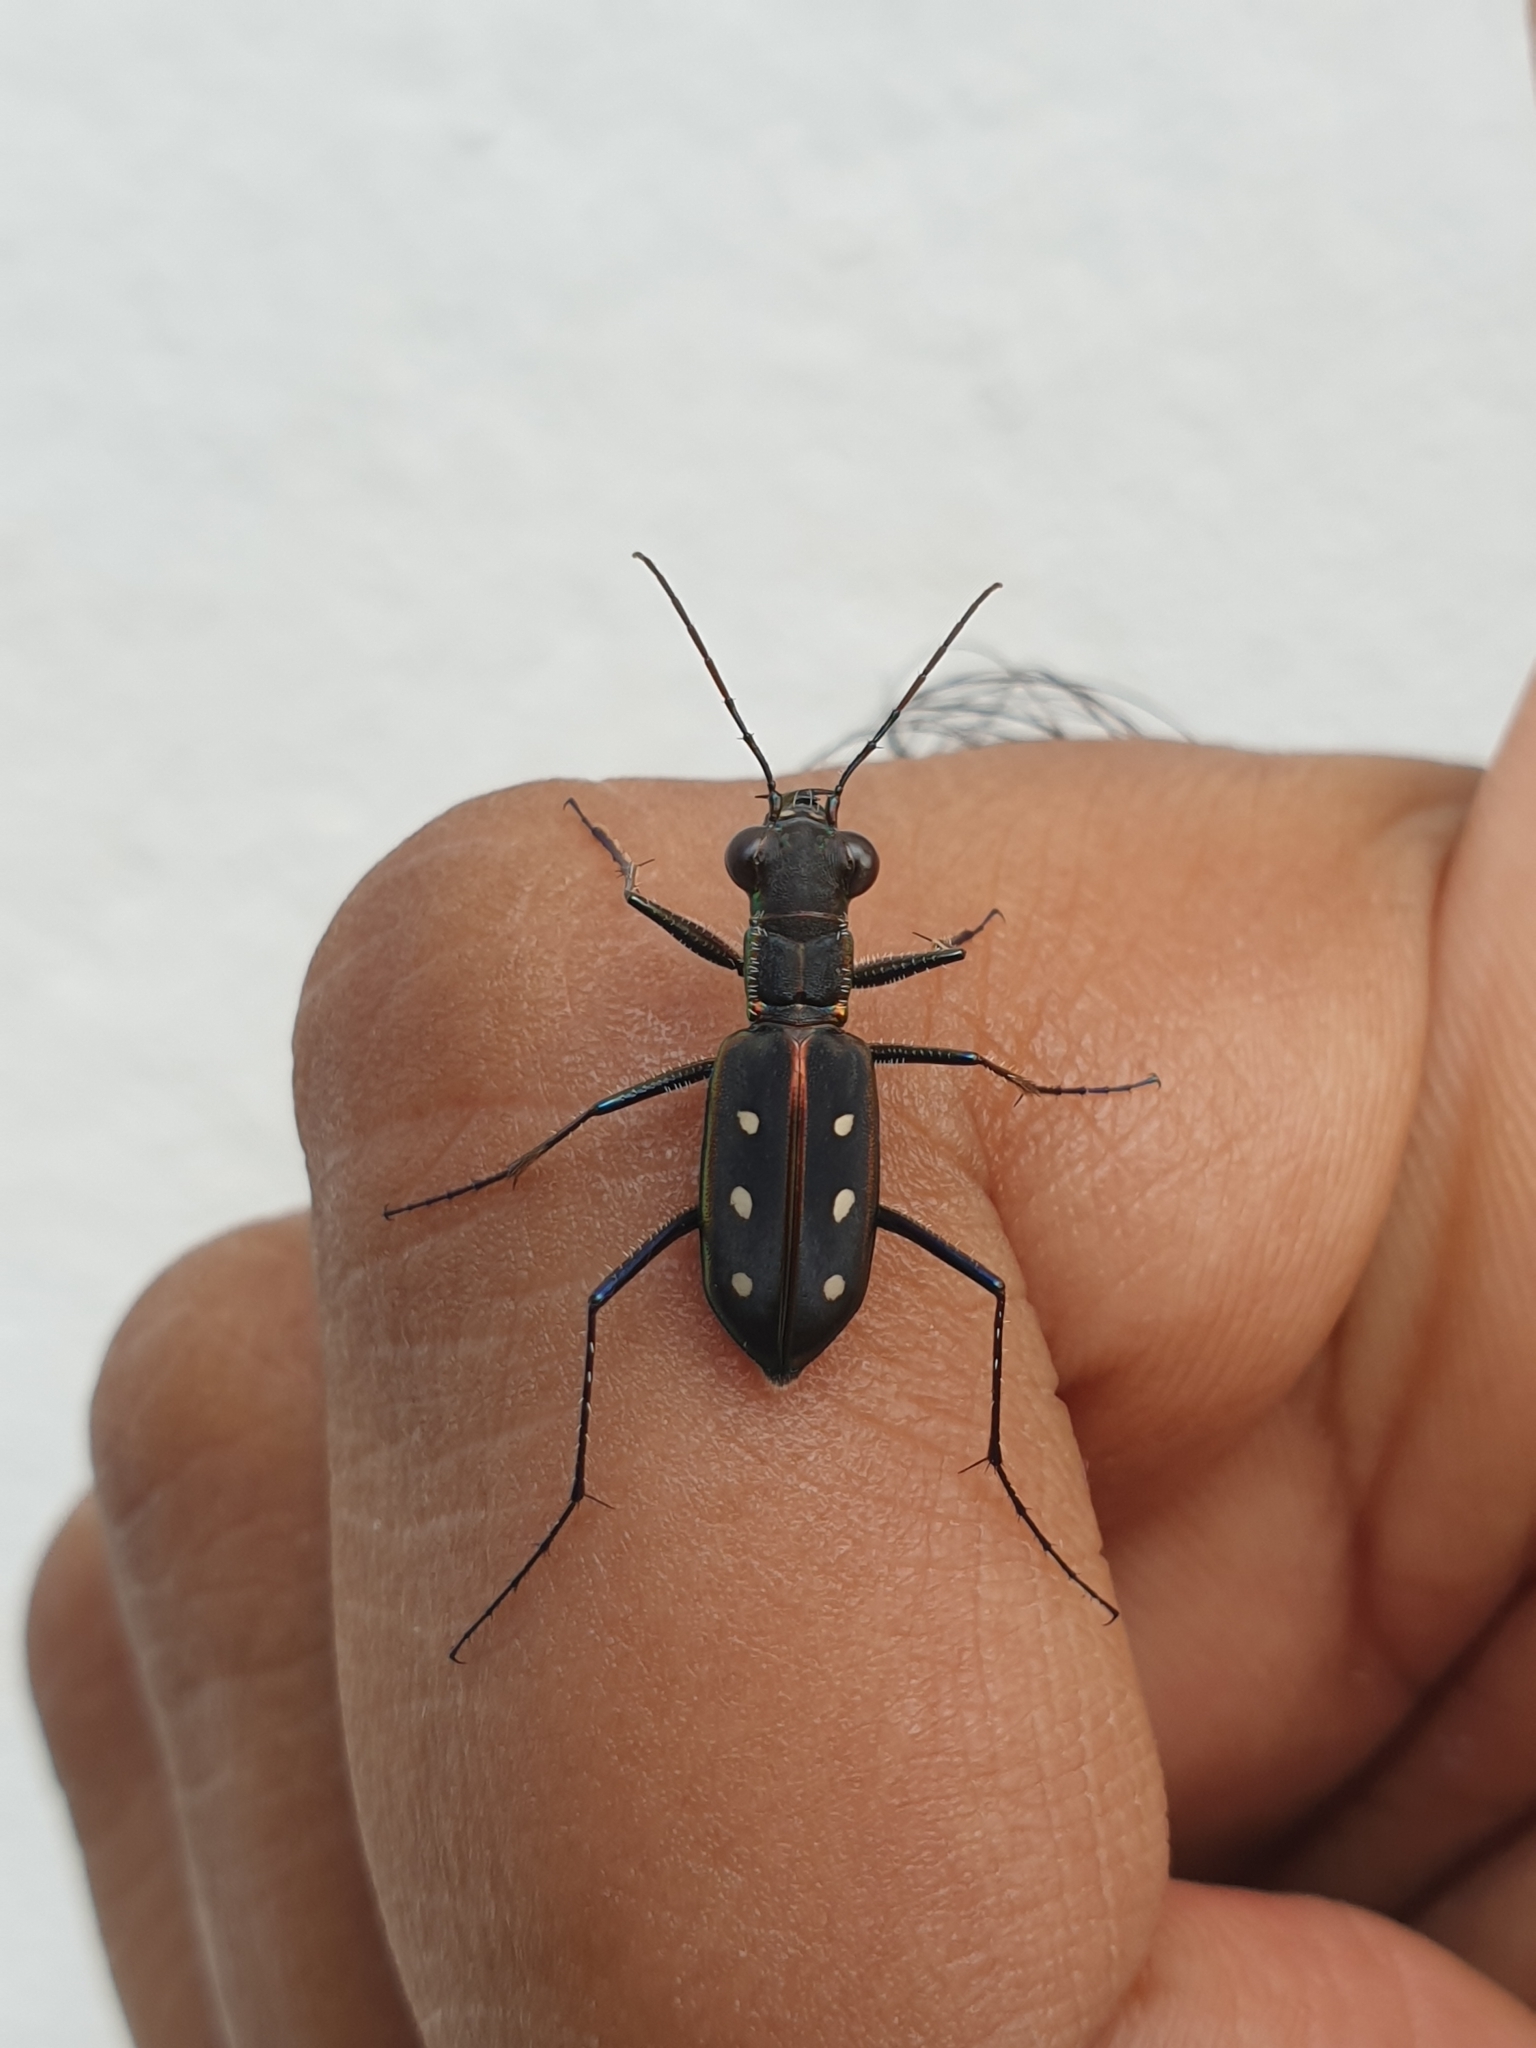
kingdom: Animalia
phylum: Arthropoda
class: Insecta
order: Coleoptera
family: Carabidae
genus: Cicindela
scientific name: Cicindela sexpunctata
